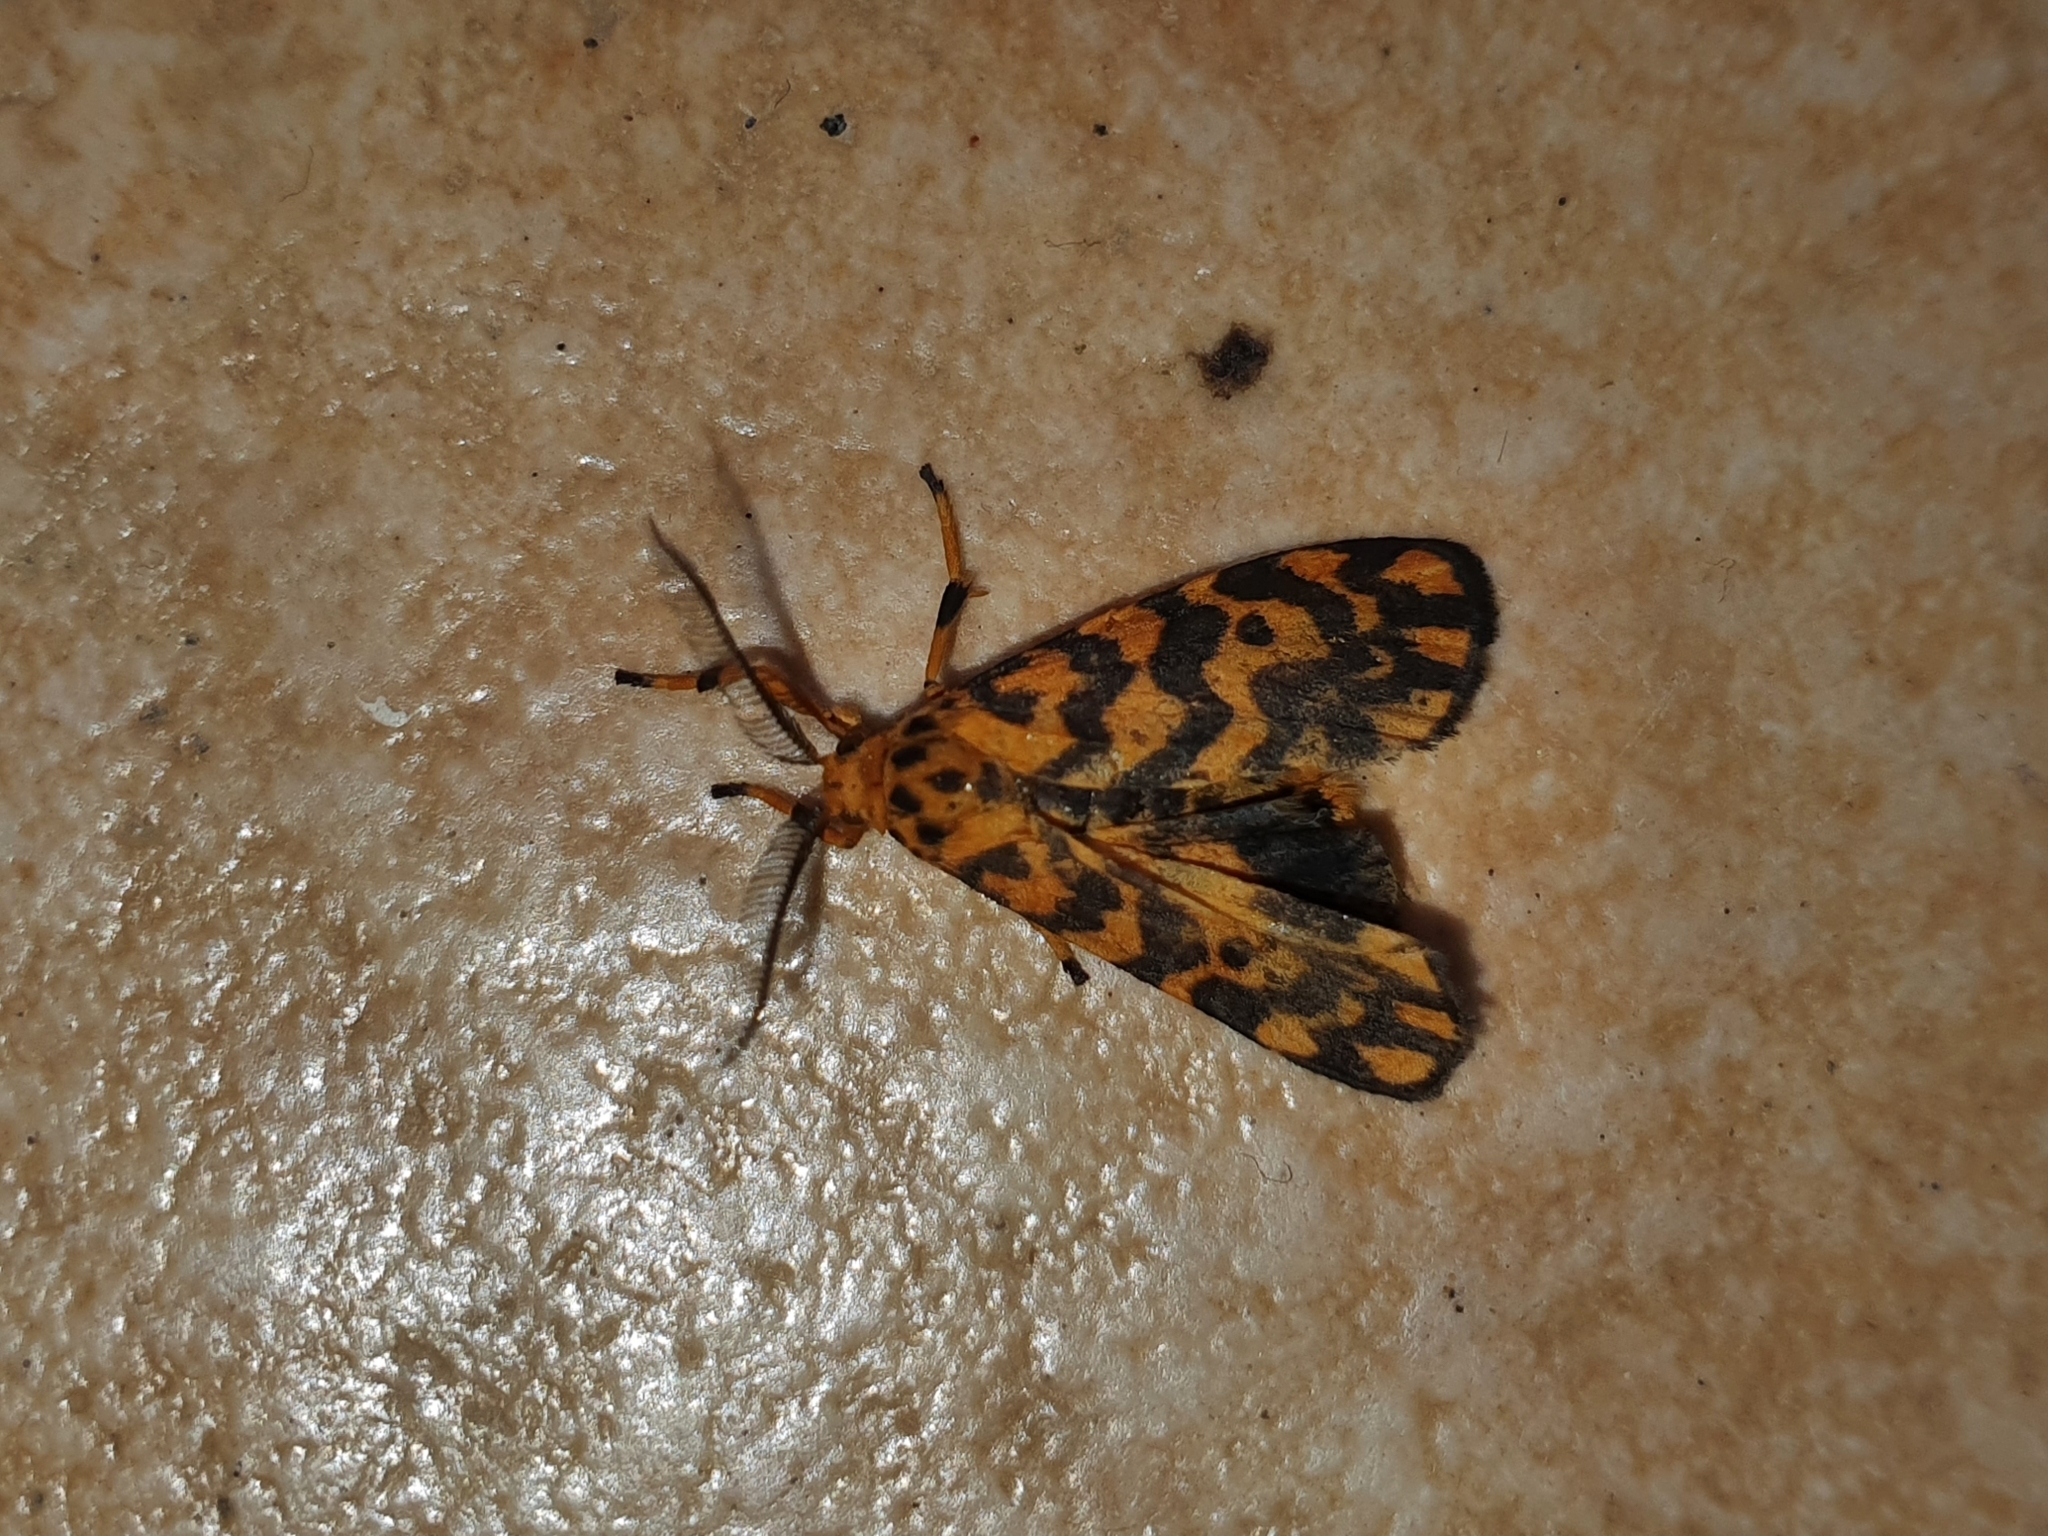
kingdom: Animalia
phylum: Arthropoda
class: Insecta
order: Lepidoptera
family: Erebidae
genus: Nepita
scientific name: Nepita conferta
